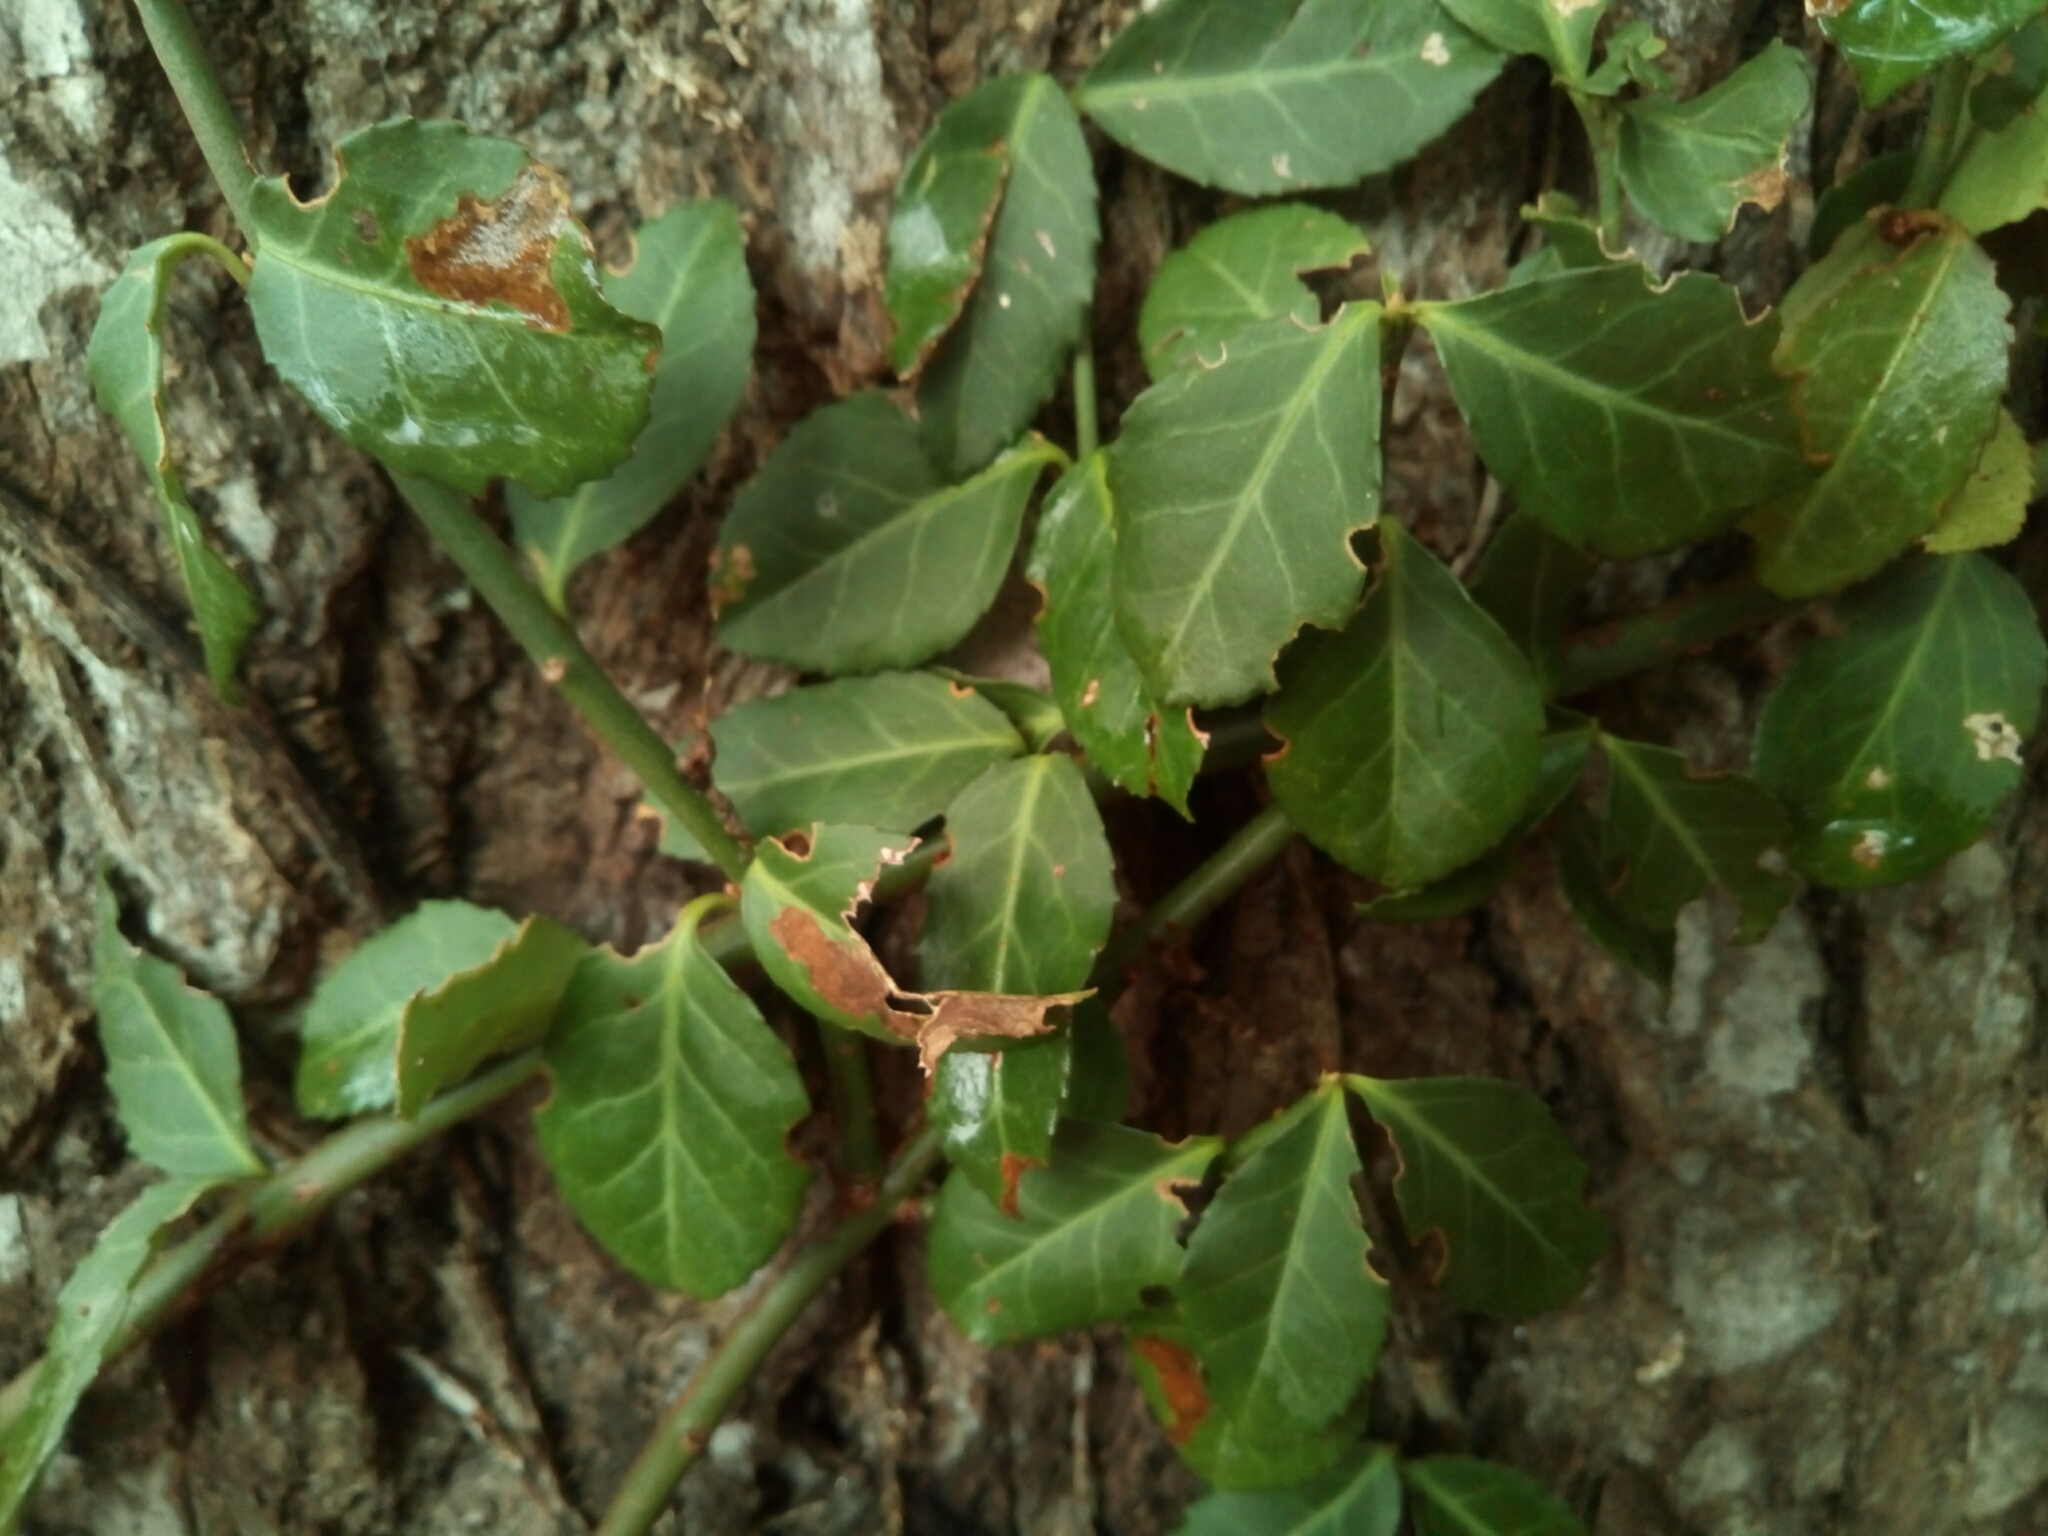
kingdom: Plantae
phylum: Tracheophyta
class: Magnoliopsida
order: Celastrales
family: Celastraceae
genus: Euonymus
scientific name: Euonymus fortunei
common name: Climbing euonymus
